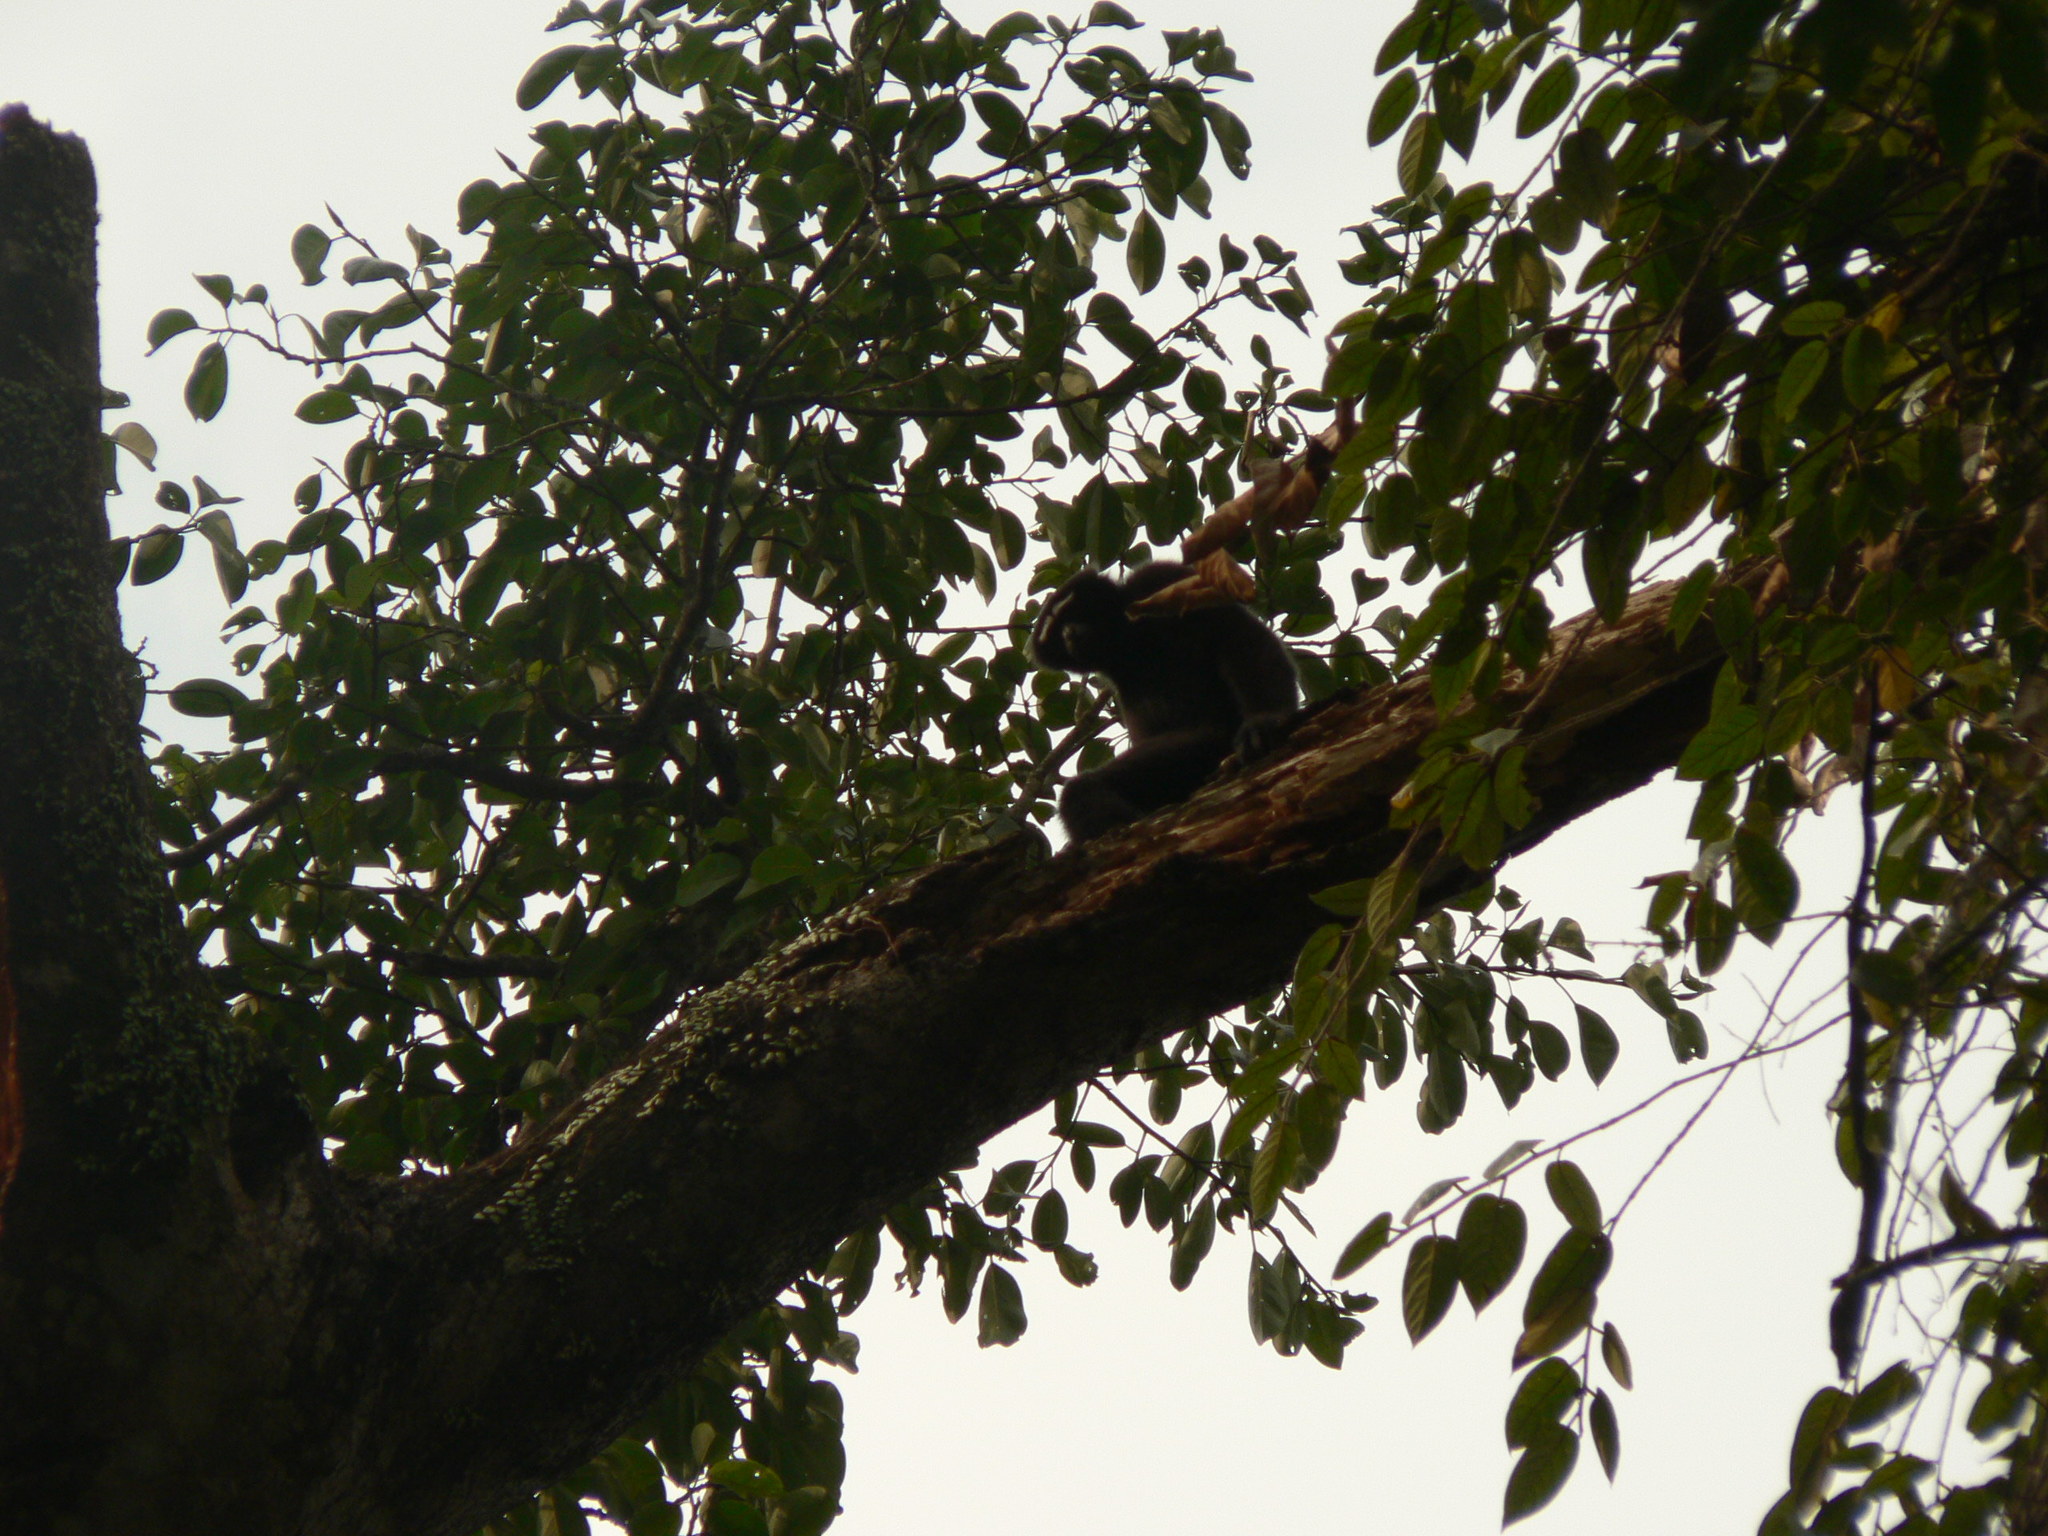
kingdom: Animalia
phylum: Chordata
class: Mammalia
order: Primates
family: Hylobatidae
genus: Hoolock
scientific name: Hoolock hoolock
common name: Western hoolock gibbon
